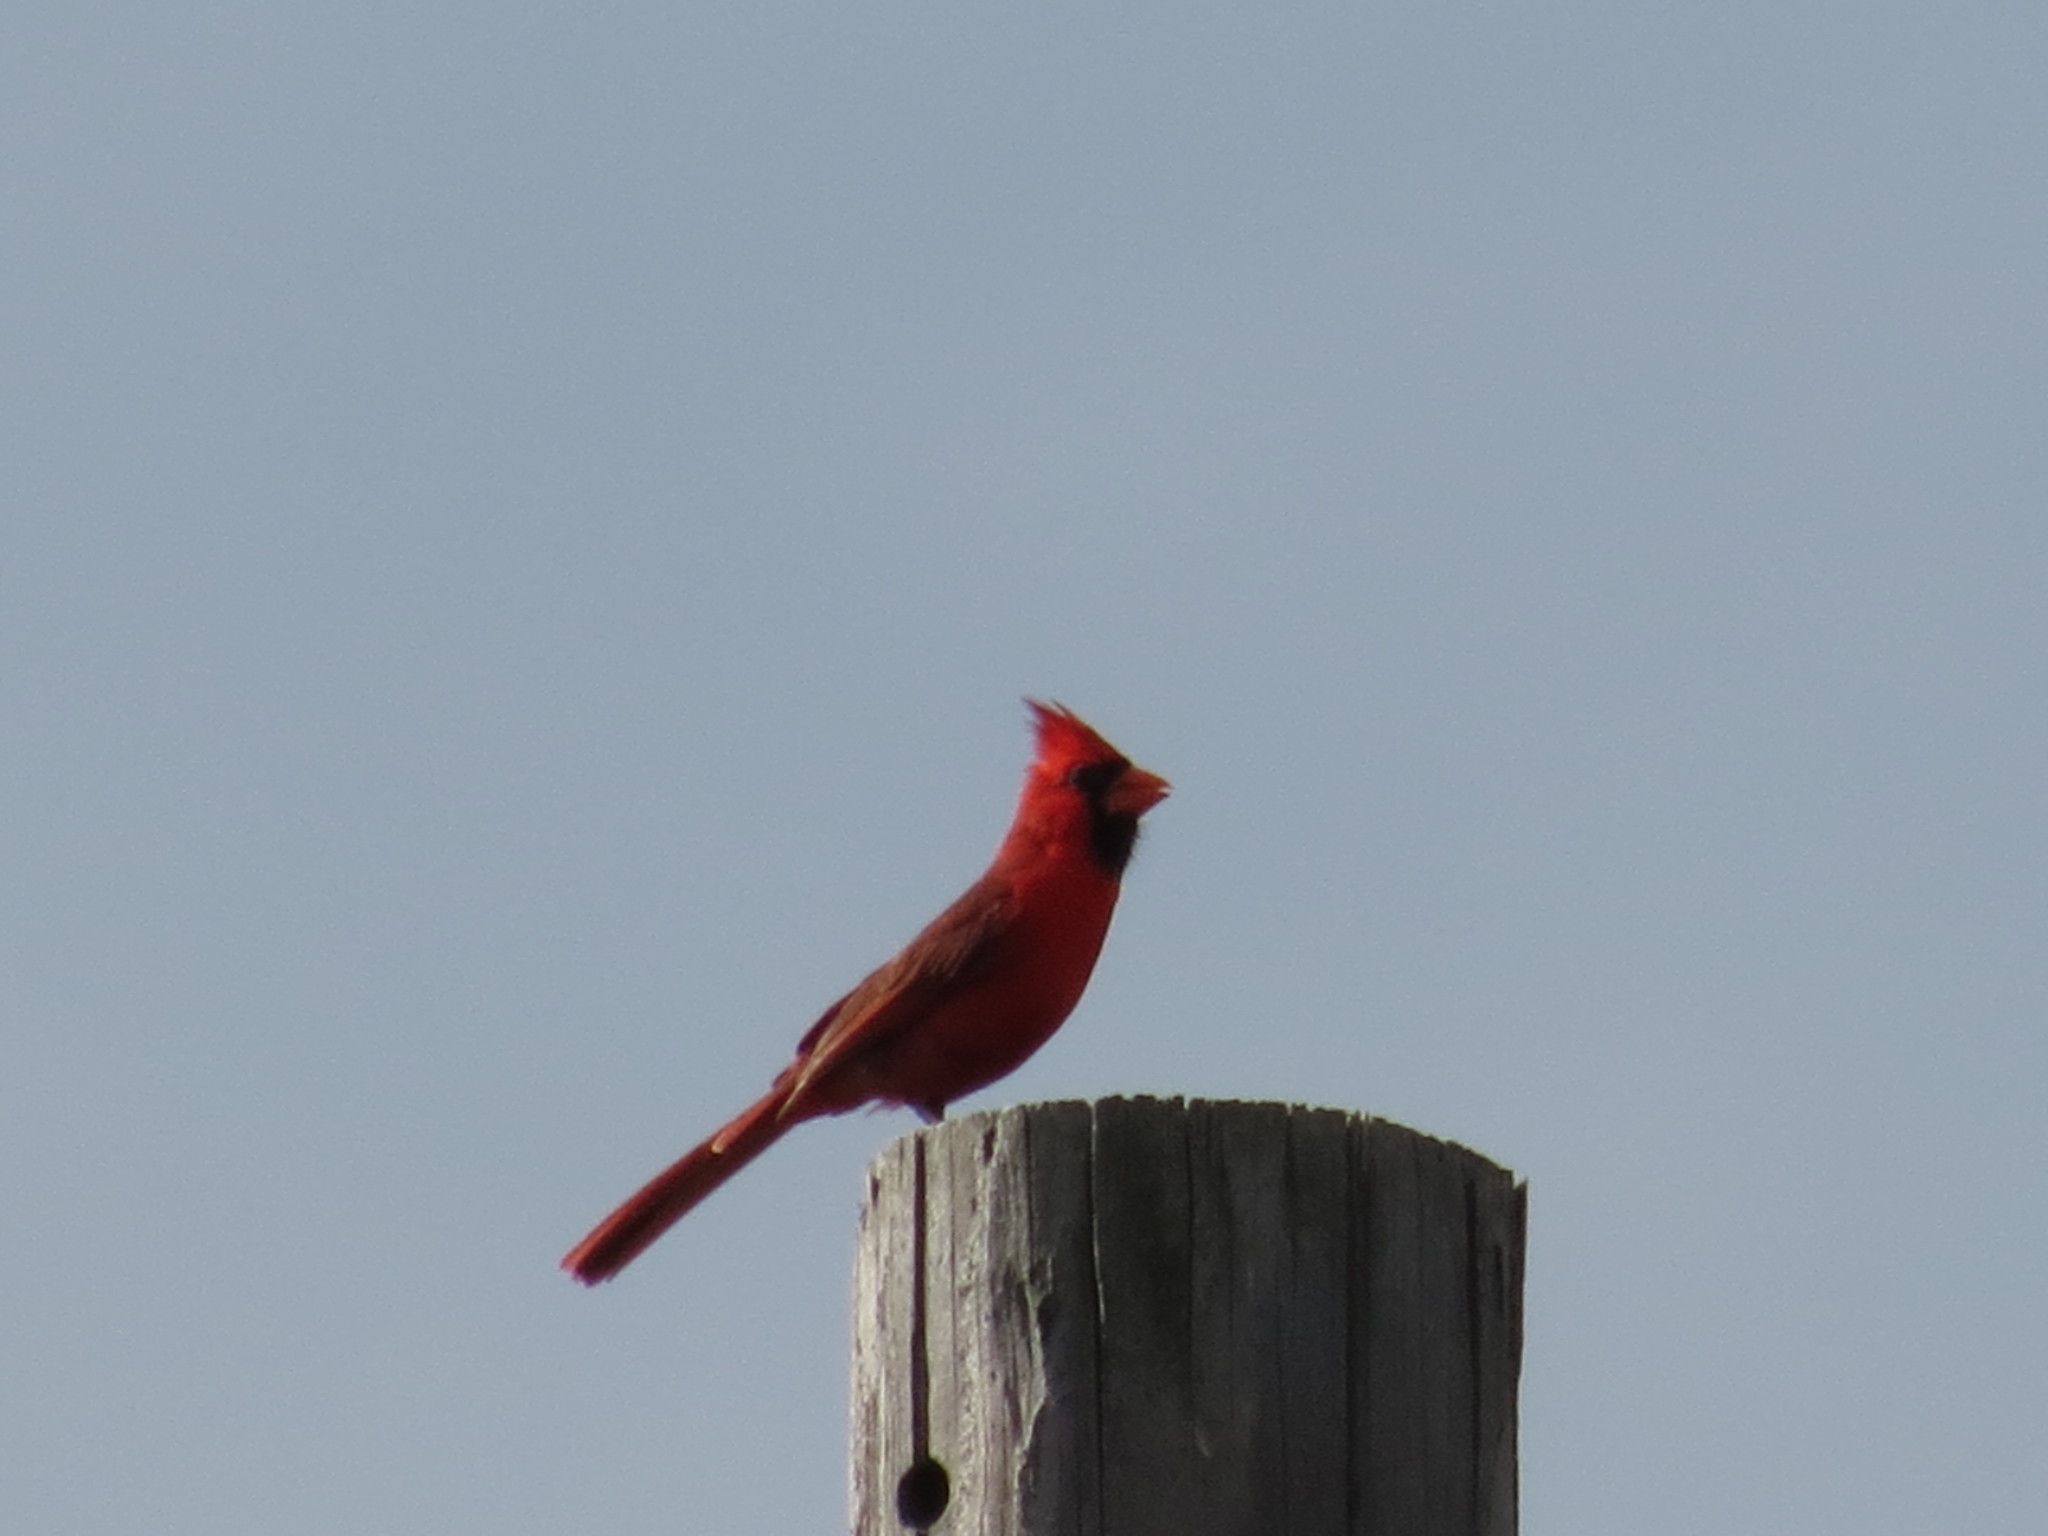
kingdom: Animalia
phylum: Chordata
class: Aves
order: Passeriformes
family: Cardinalidae
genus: Cardinalis
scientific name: Cardinalis cardinalis
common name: Northern cardinal
